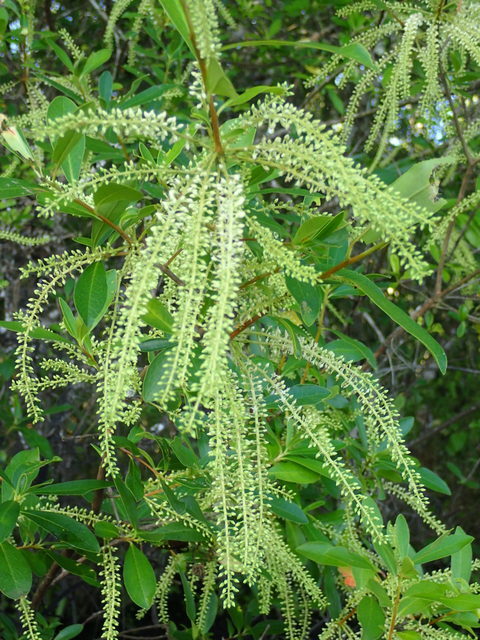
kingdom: Plantae
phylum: Tracheophyta
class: Magnoliopsida
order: Ericales
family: Cyrillaceae
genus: Cyrilla
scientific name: Cyrilla racemiflora
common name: Black titi
